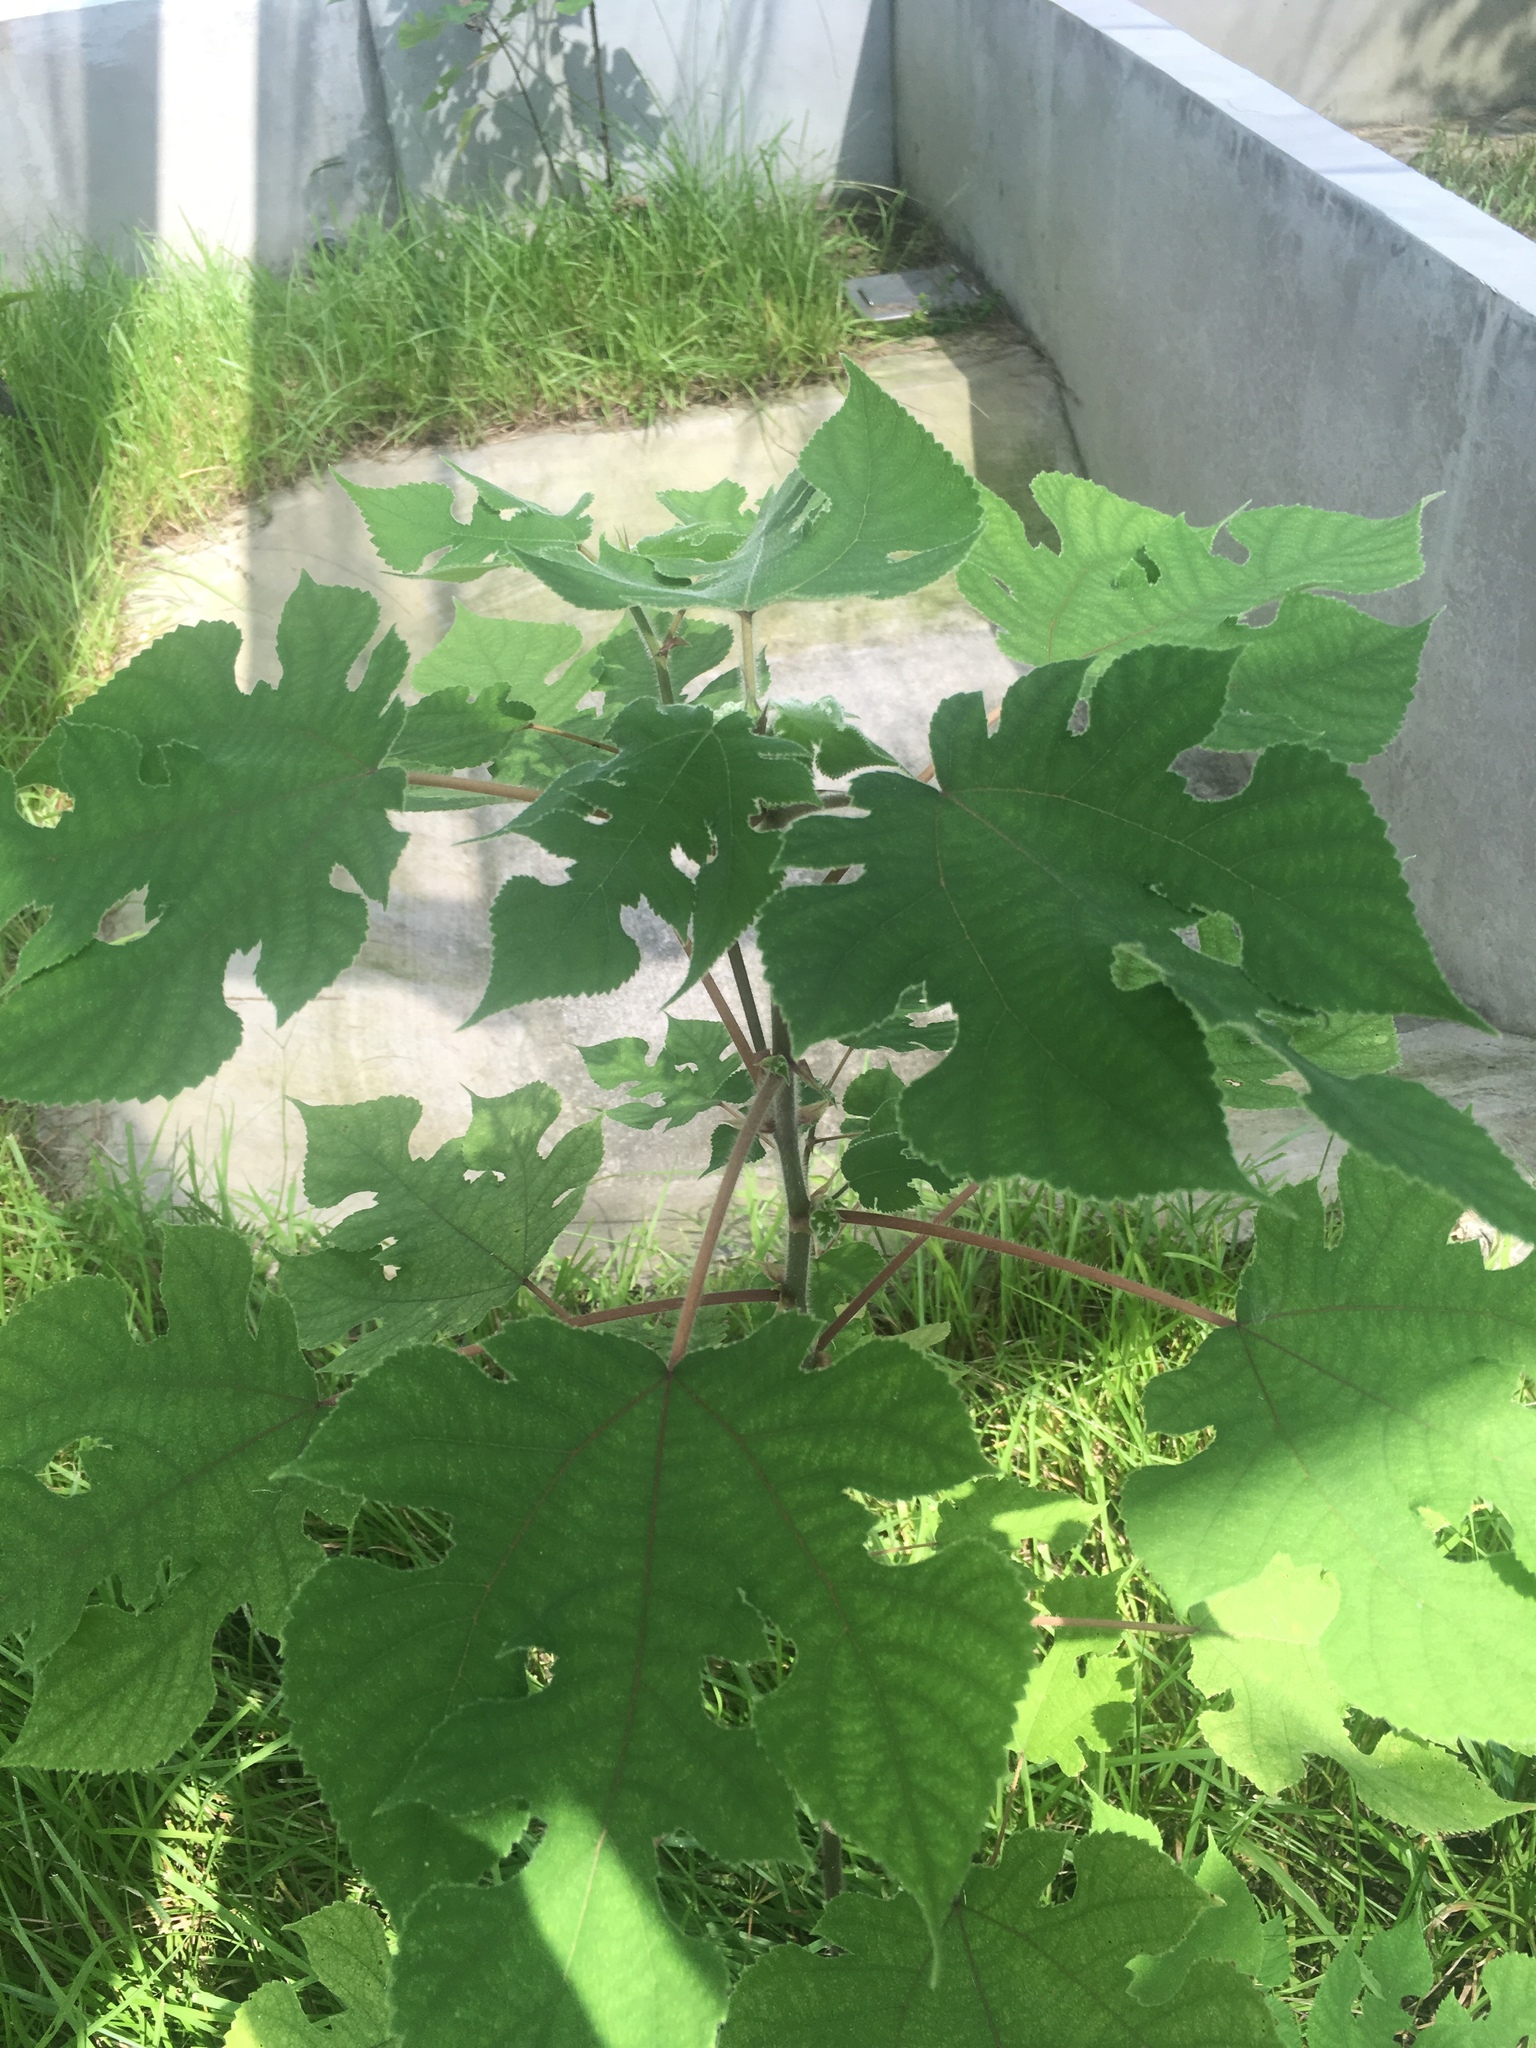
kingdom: Plantae
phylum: Tracheophyta
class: Magnoliopsida
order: Rosales
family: Moraceae
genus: Broussonetia
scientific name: Broussonetia papyrifera
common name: Paper mulberry
